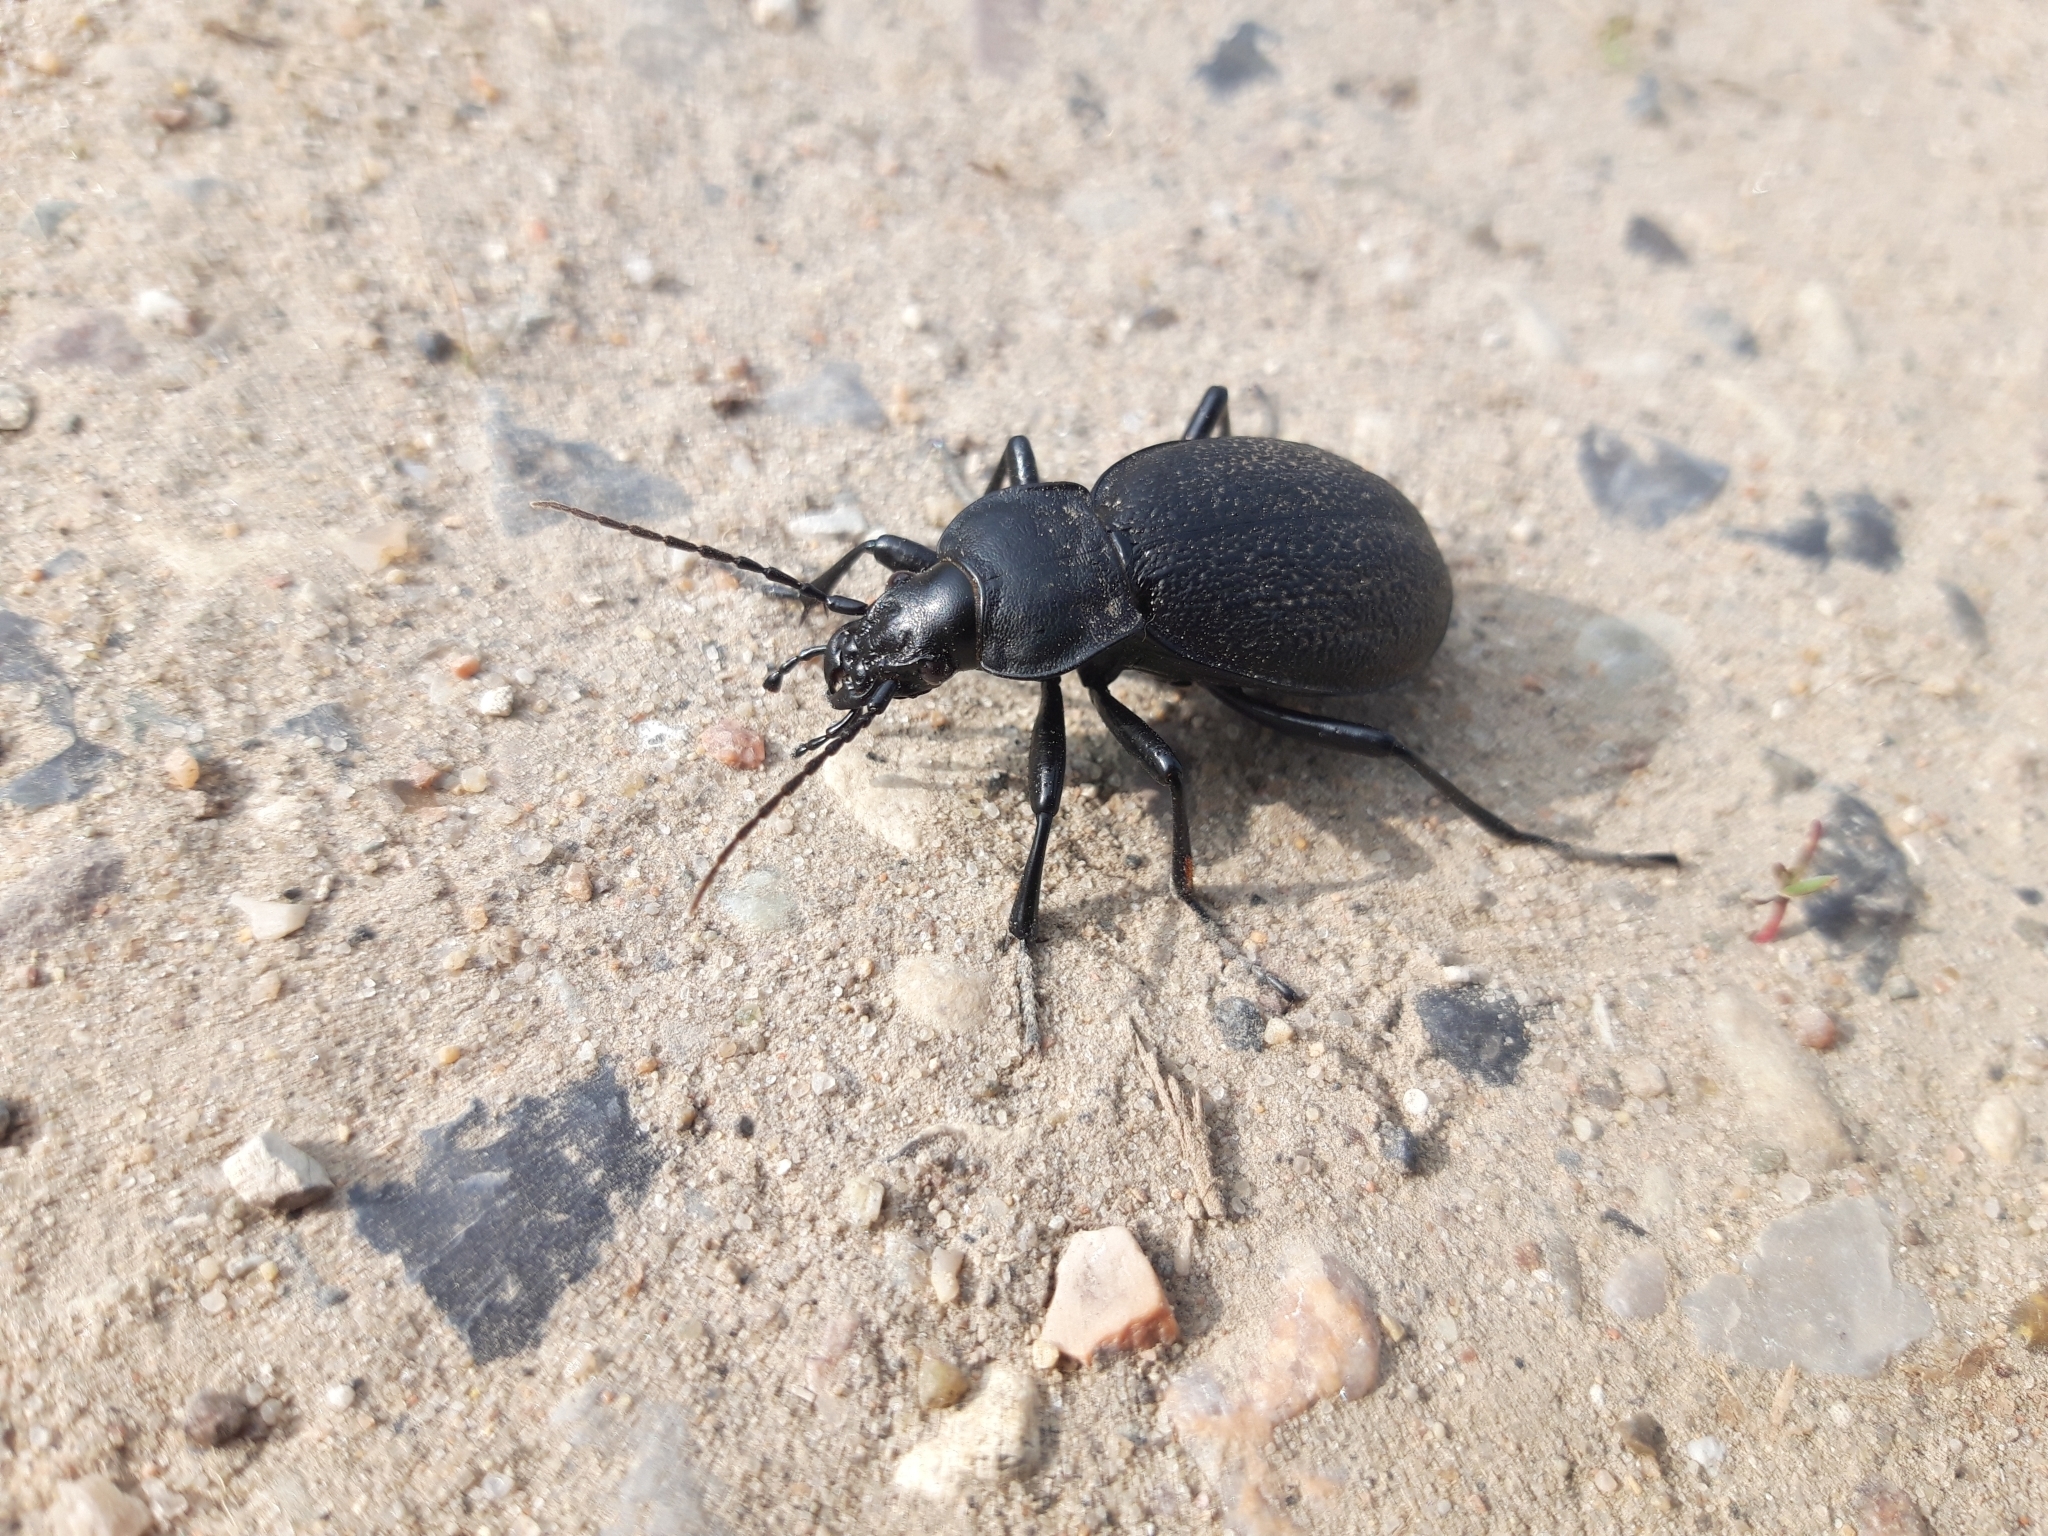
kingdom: Animalia
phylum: Arthropoda
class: Insecta
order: Coleoptera
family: Carabidae
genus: Carabus
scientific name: Carabus coriaceus
